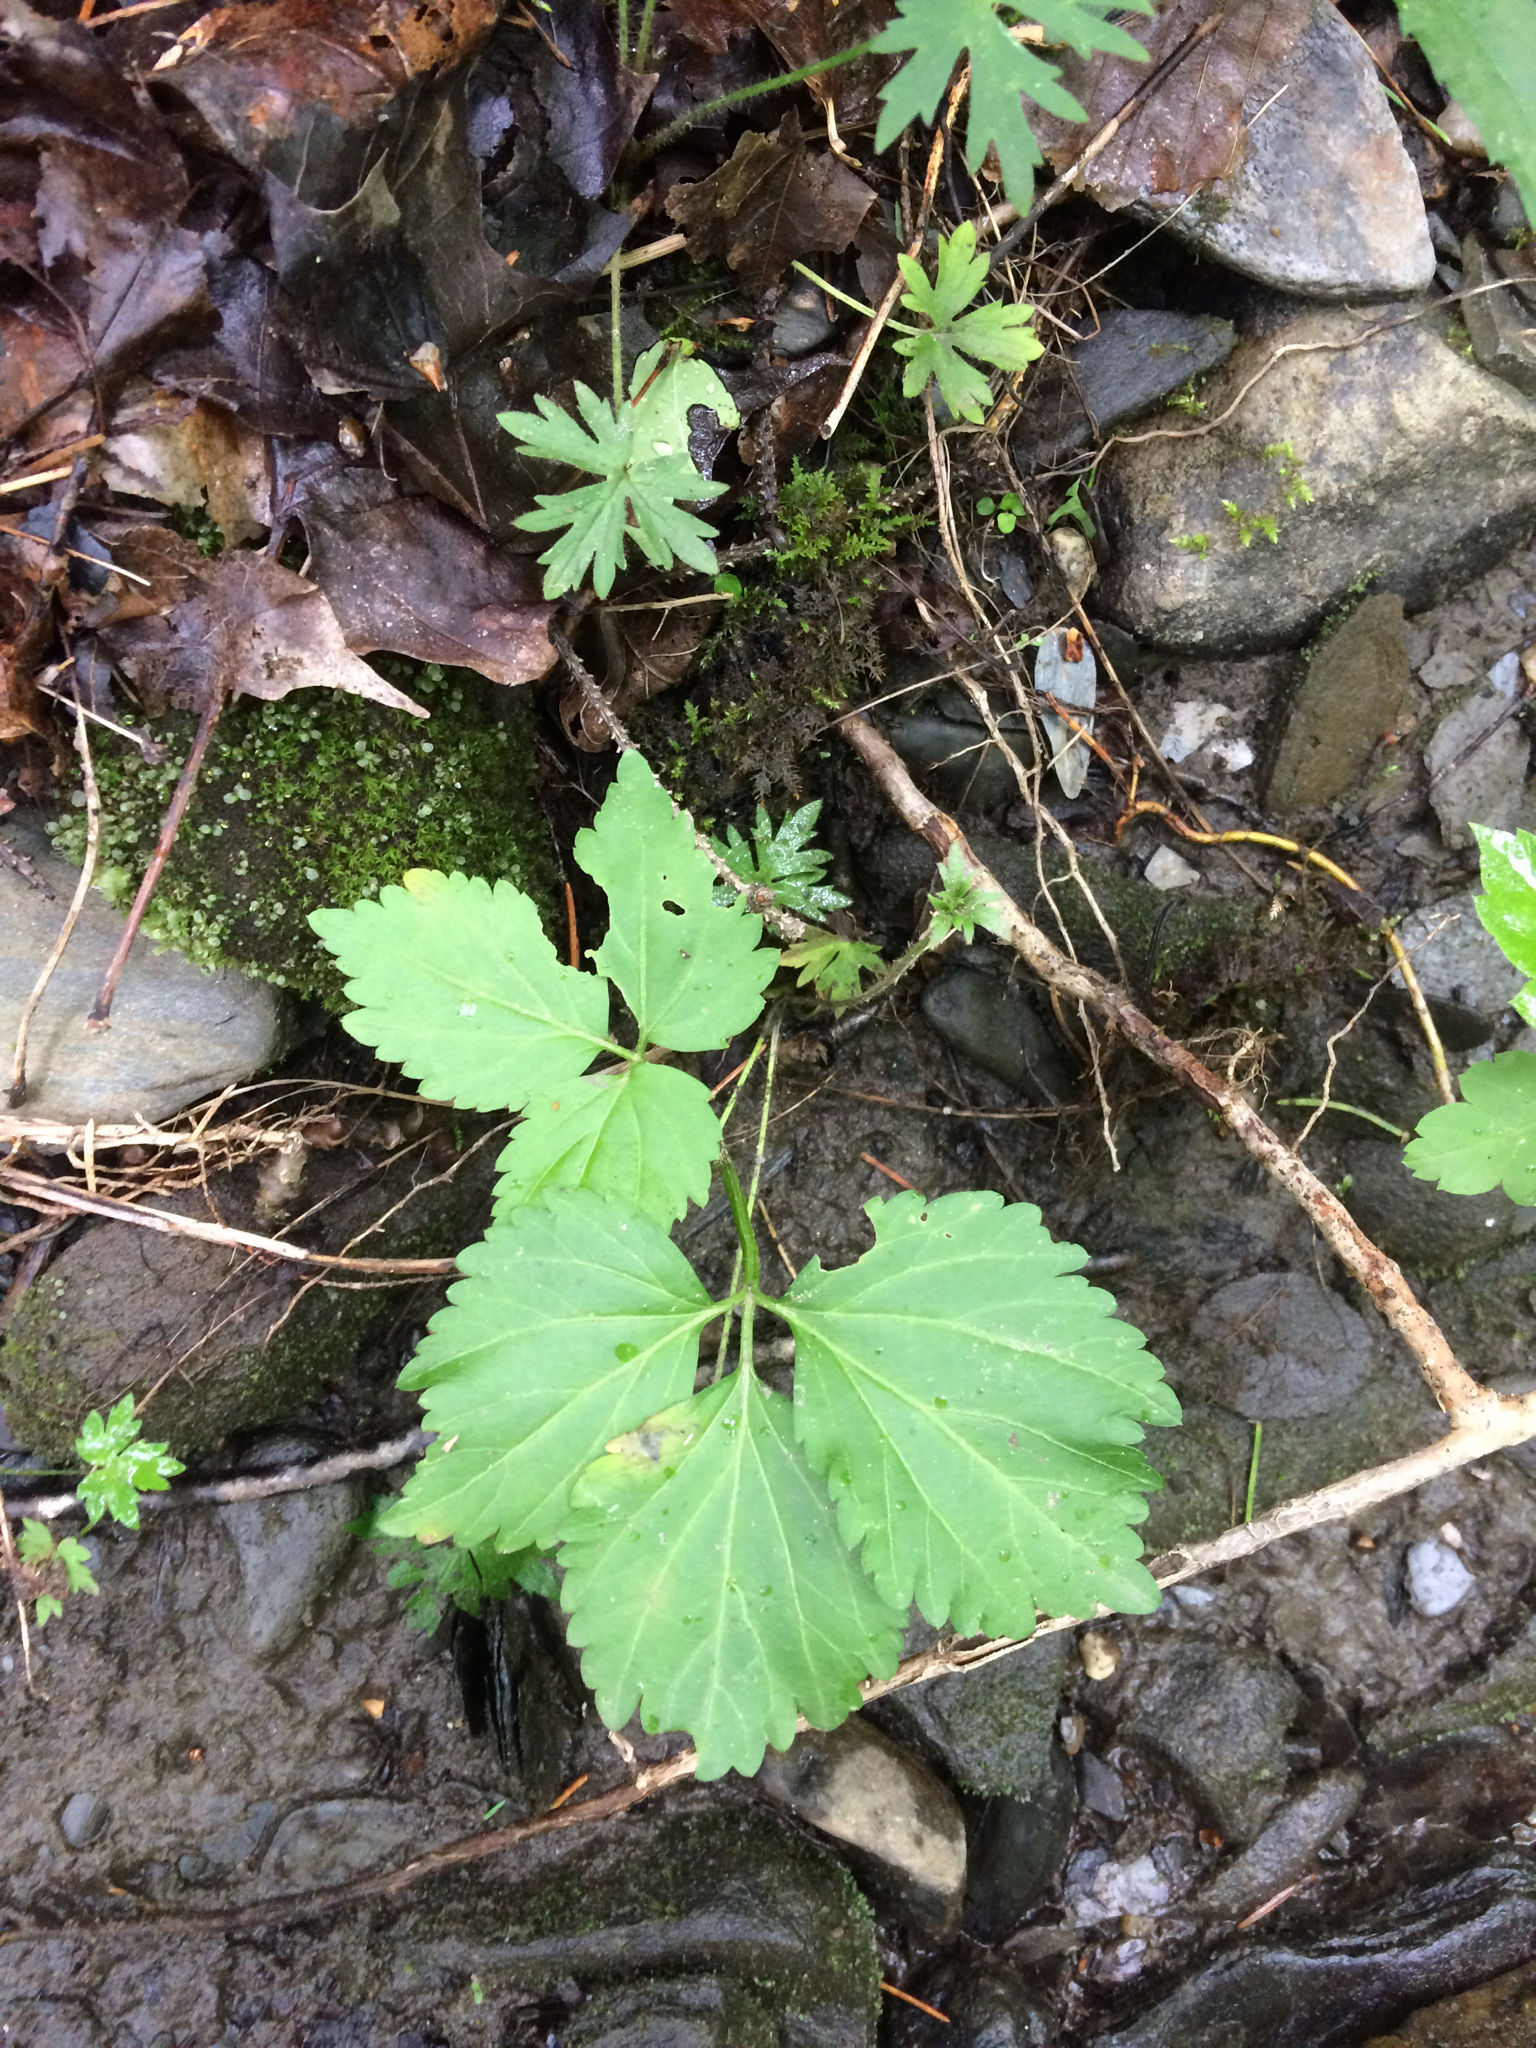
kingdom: Plantae
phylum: Tracheophyta
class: Magnoliopsida
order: Brassicales
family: Brassicaceae
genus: Cardamine
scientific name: Cardamine diphylla
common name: Broad-leaved toothwort
